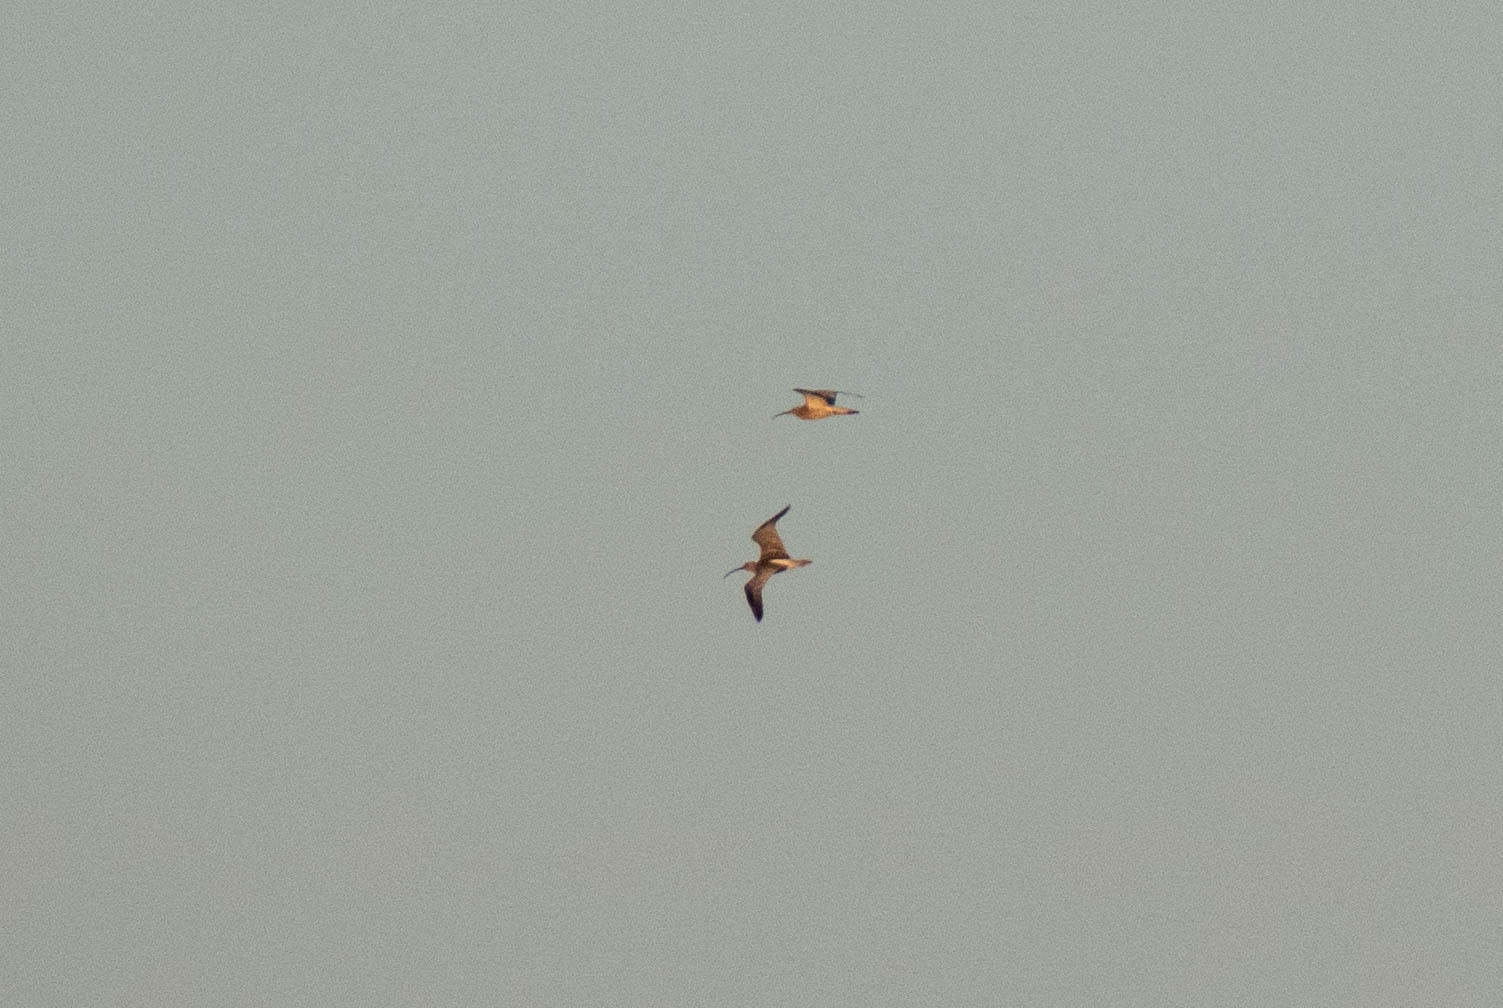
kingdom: Animalia
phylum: Chordata
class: Aves
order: Charadriiformes
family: Scolopacidae
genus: Numenius
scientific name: Numenius arquata
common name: Eurasian curlew
